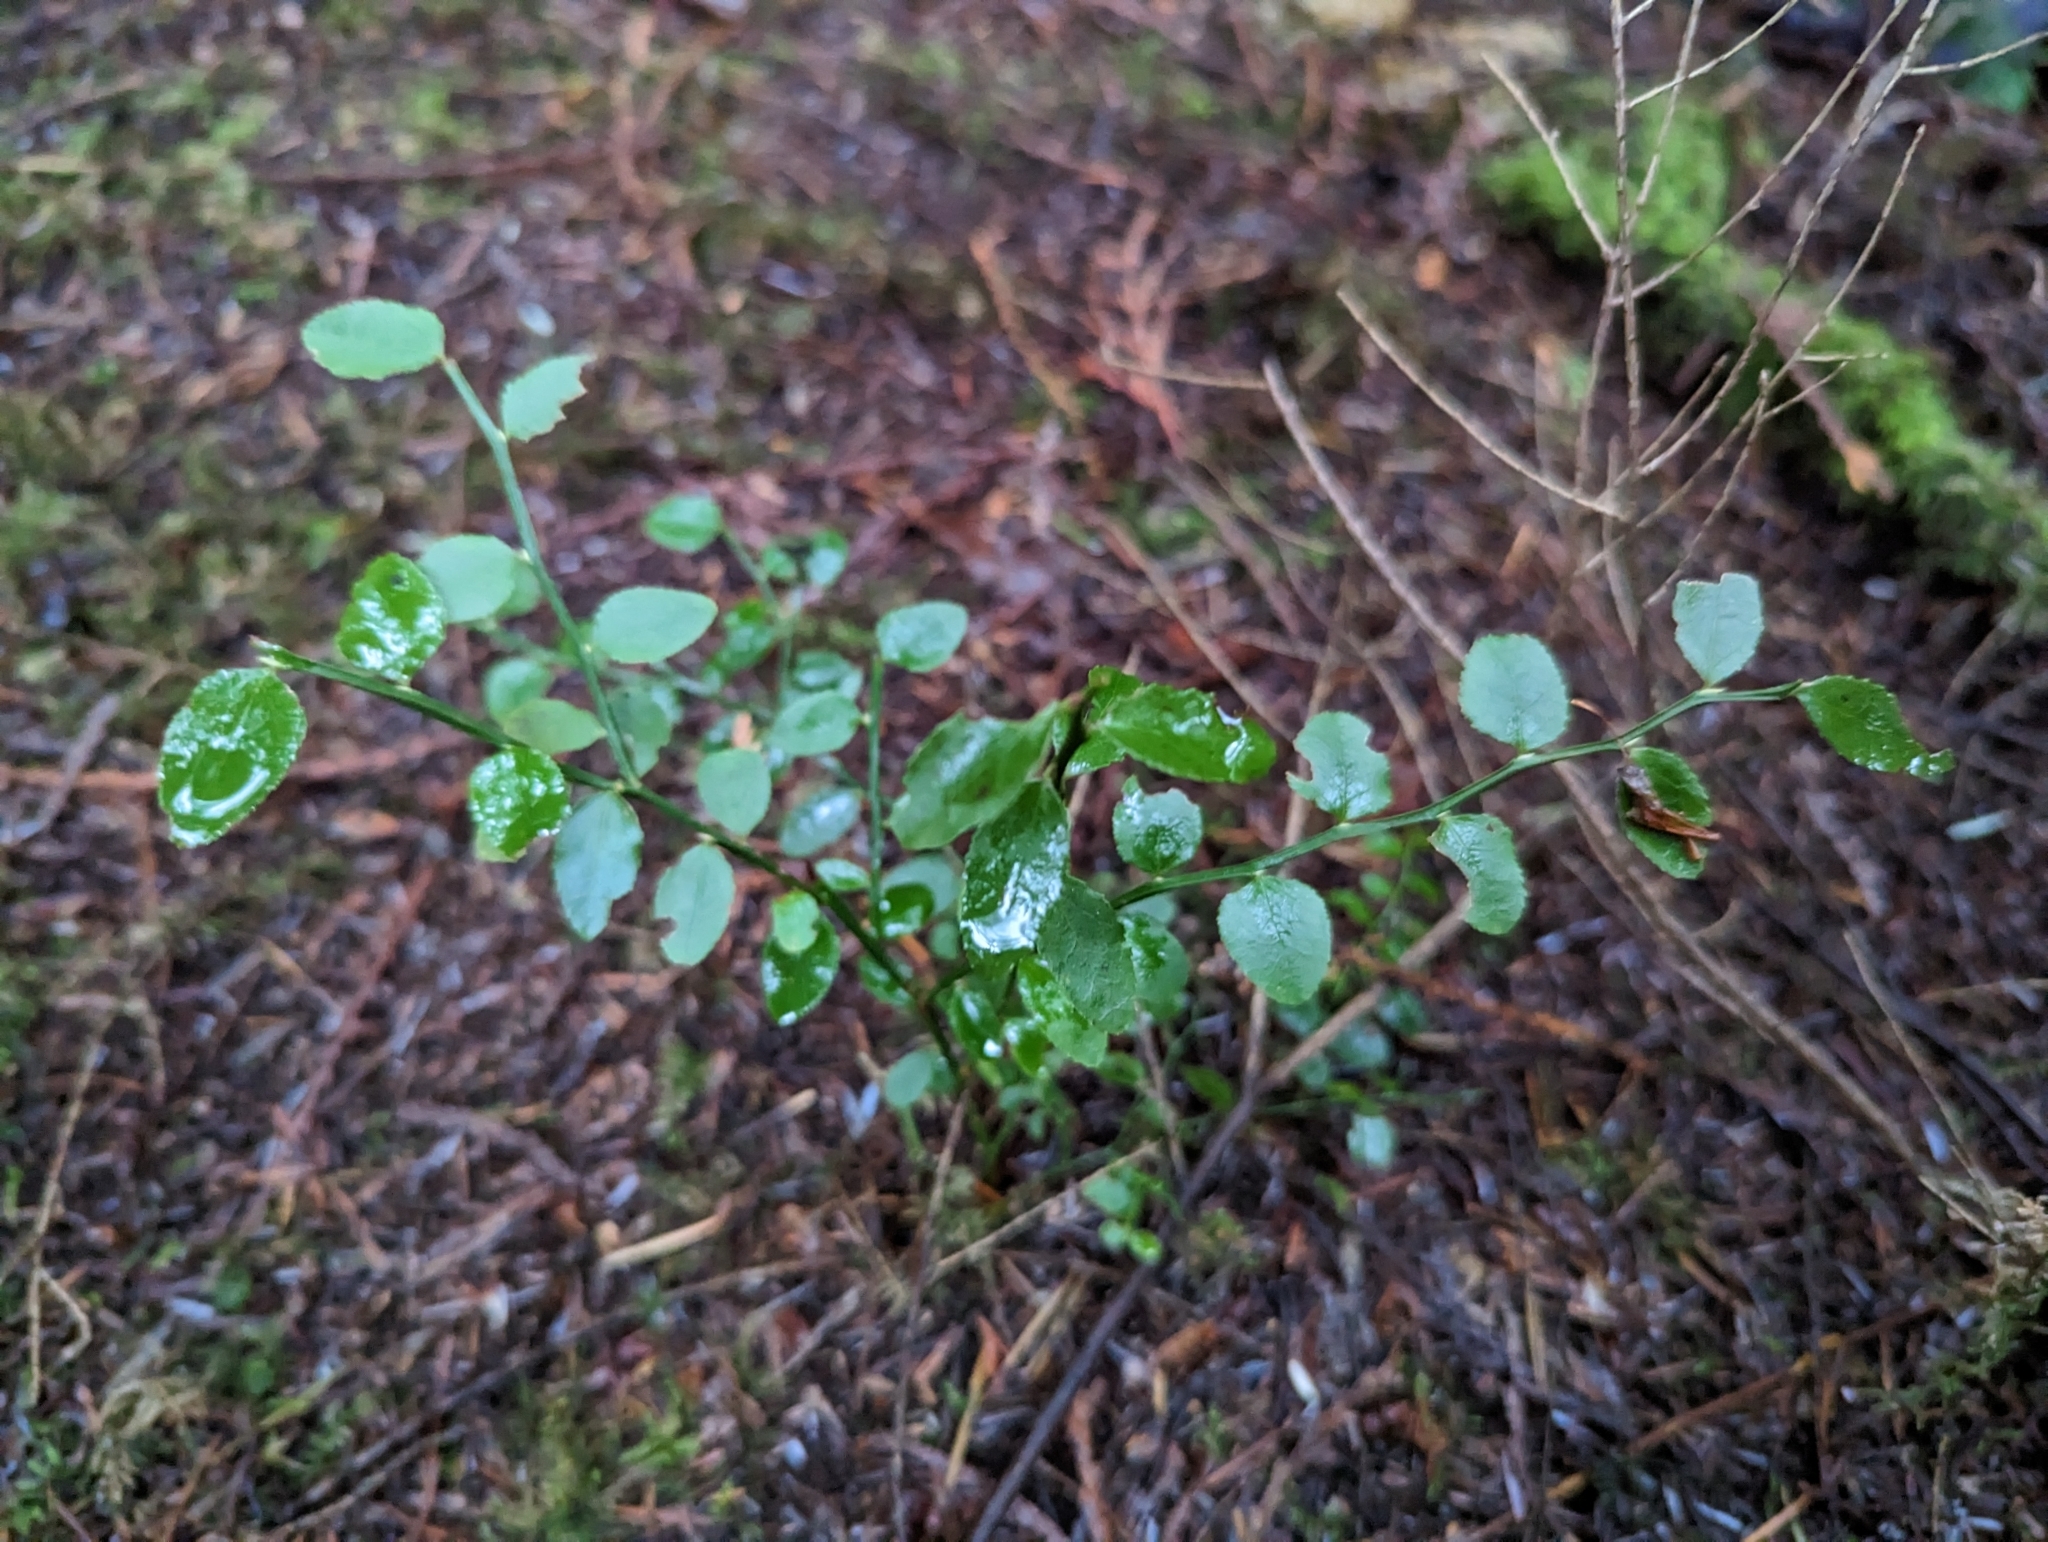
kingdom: Plantae
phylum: Tracheophyta
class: Magnoliopsida
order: Ericales
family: Ericaceae
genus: Vaccinium
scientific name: Vaccinium parvifolium
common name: Red-huckleberry
